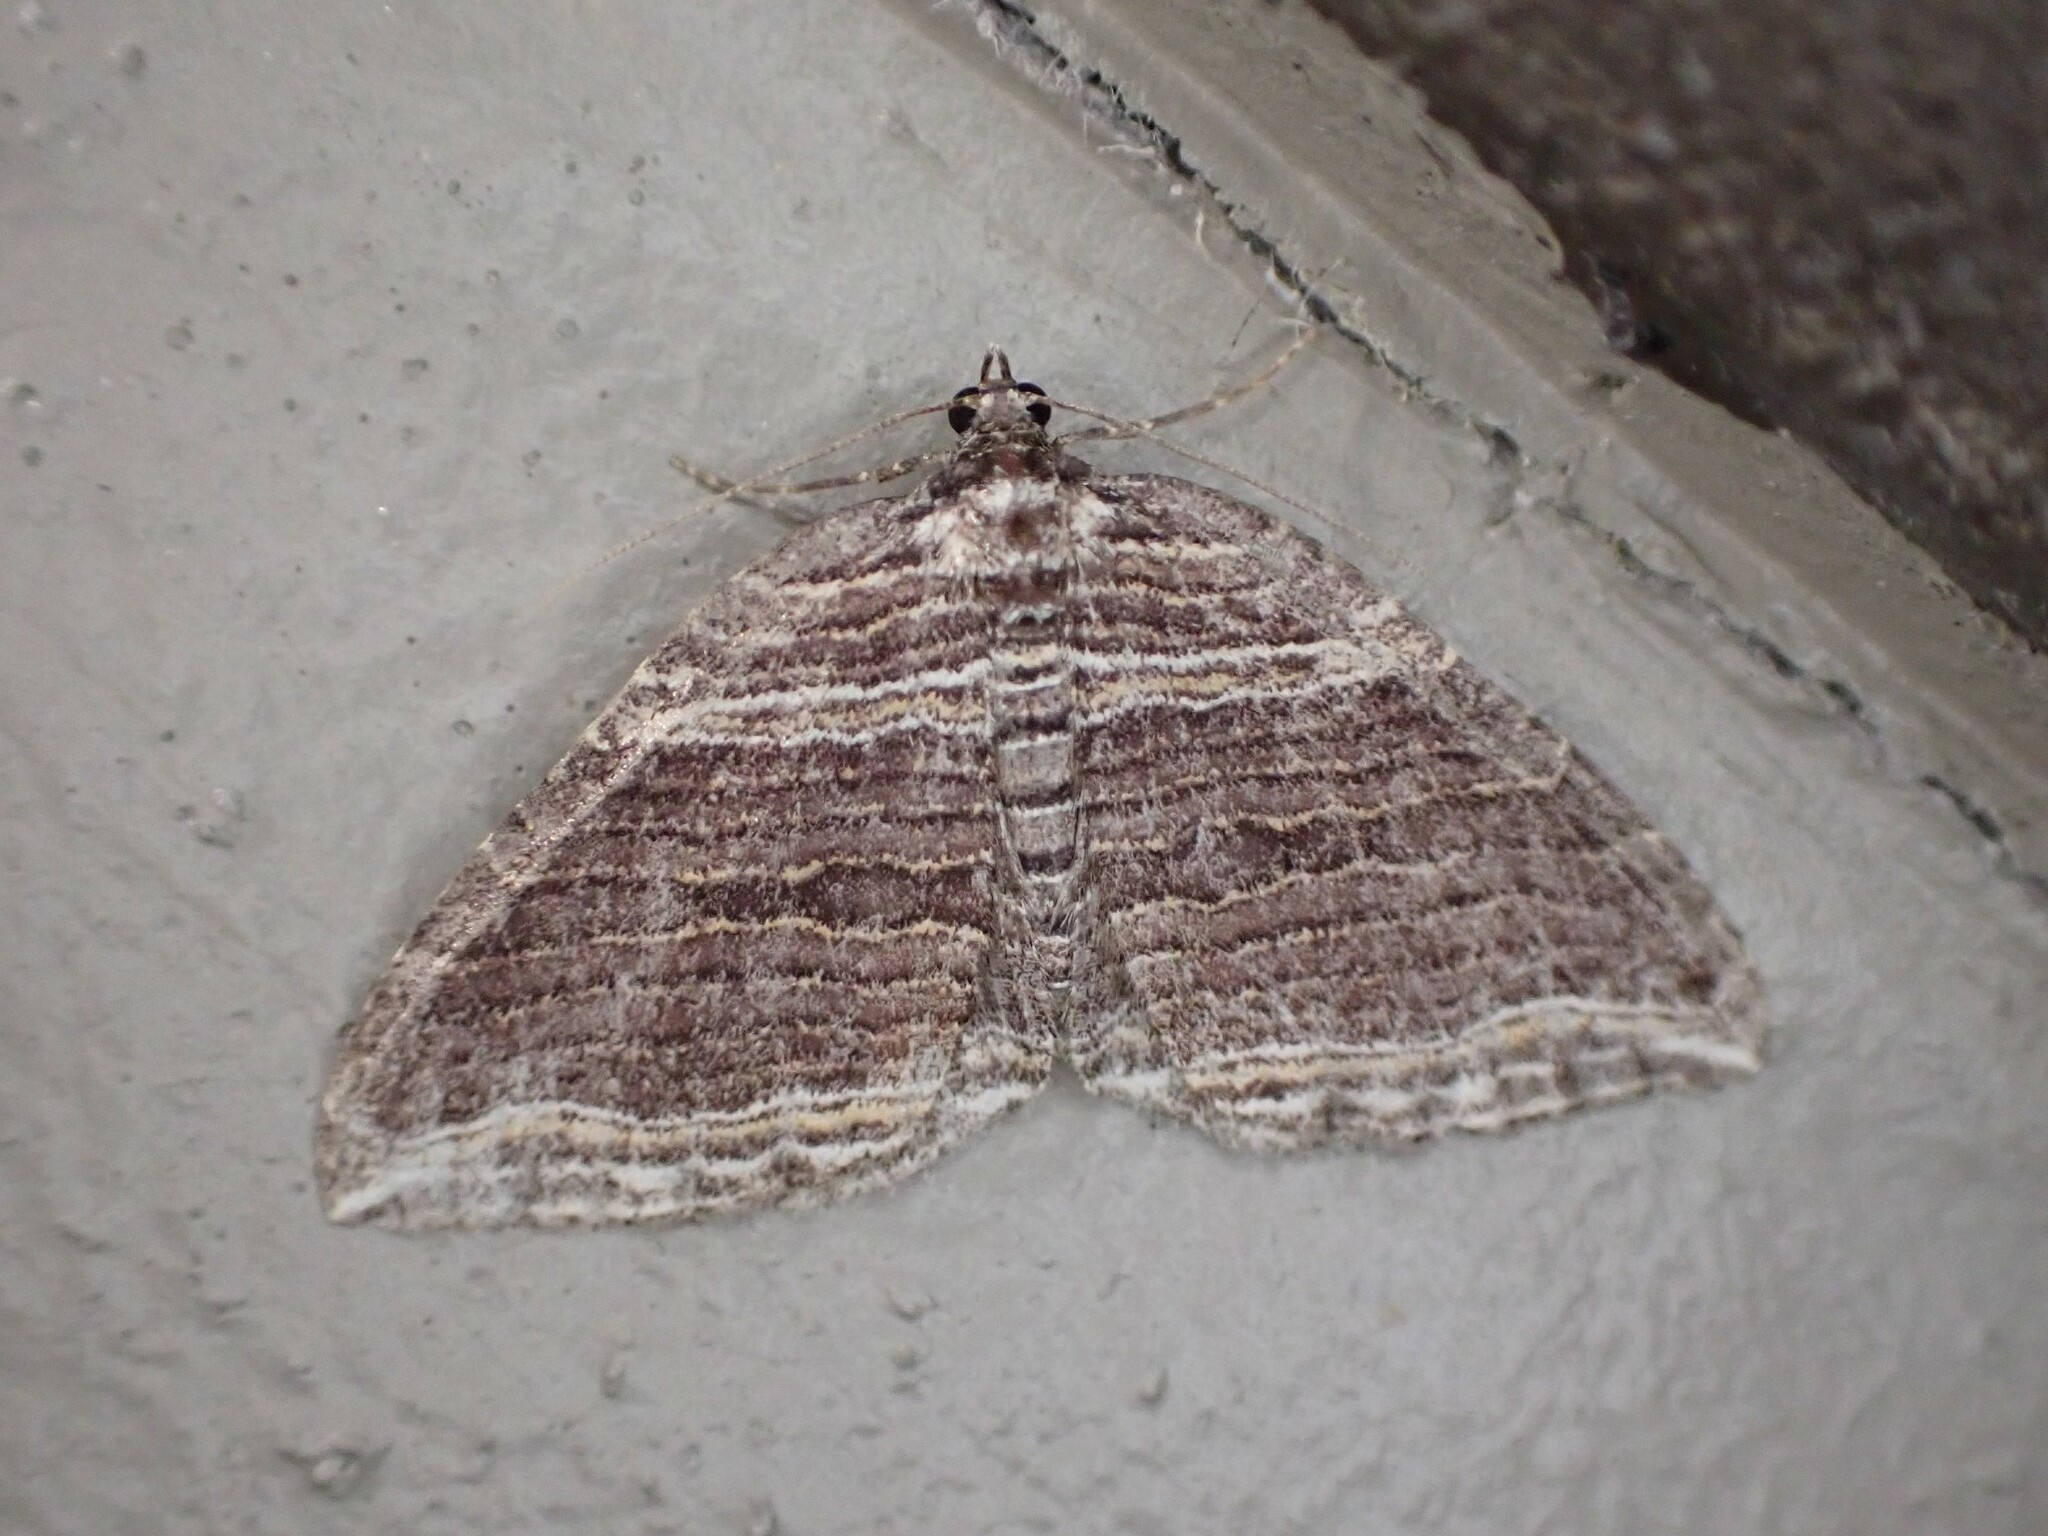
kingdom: Animalia
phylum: Arthropoda
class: Insecta
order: Lepidoptera
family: Geometridae
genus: Anticlea
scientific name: Anticlea multiferata
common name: Many-lined carpet
